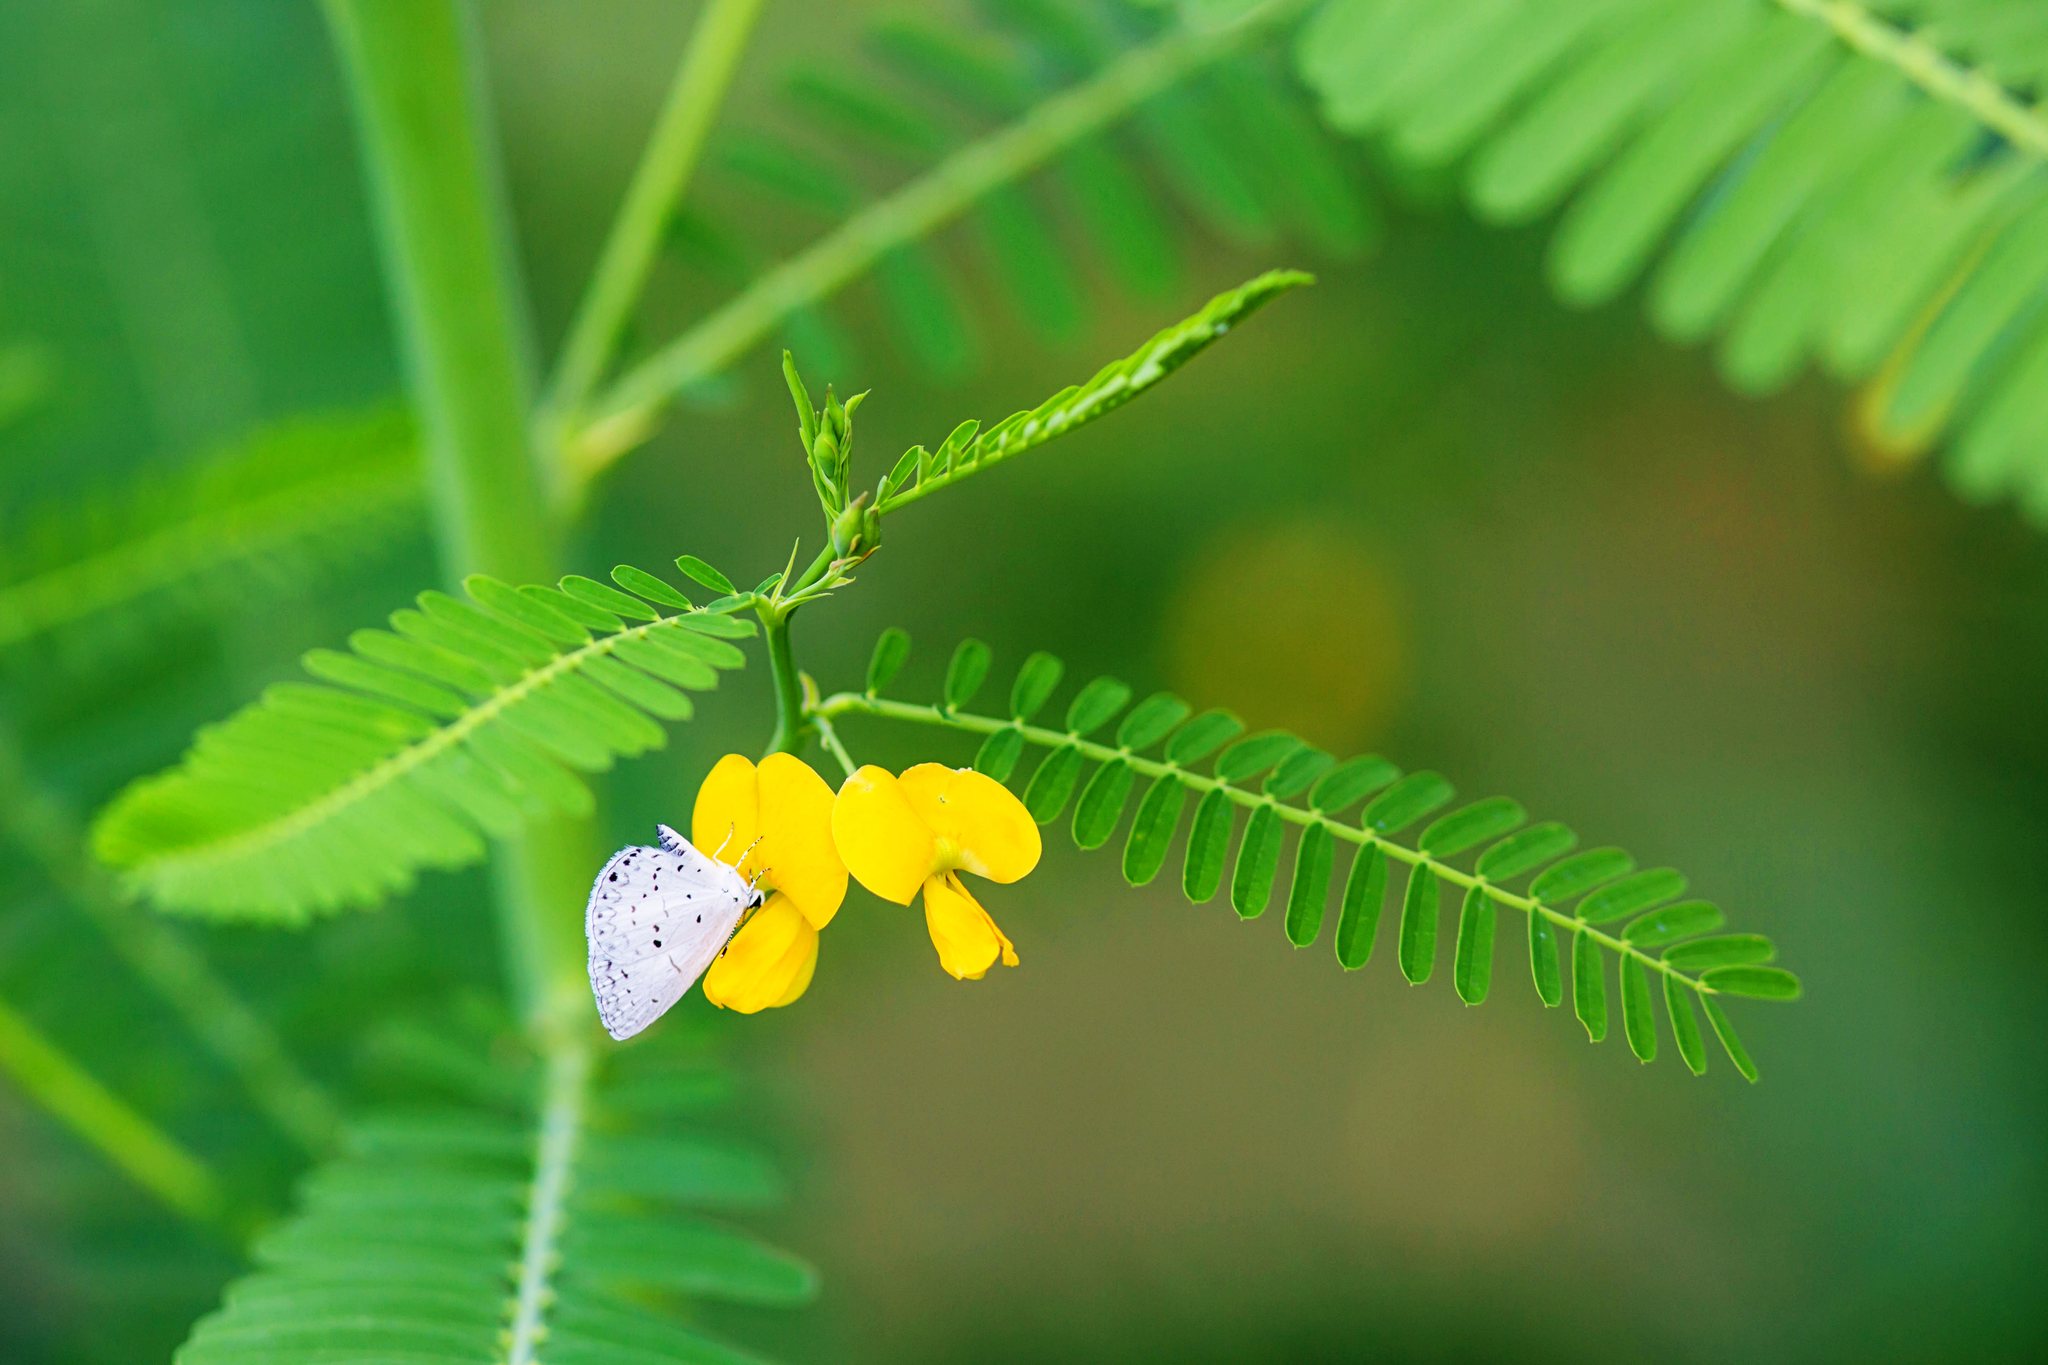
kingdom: Animalia
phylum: Arthropoda
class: Insecta
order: Lepidoptera
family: Lycaenidae
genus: Cyaniris
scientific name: Cyaniris neglecta
